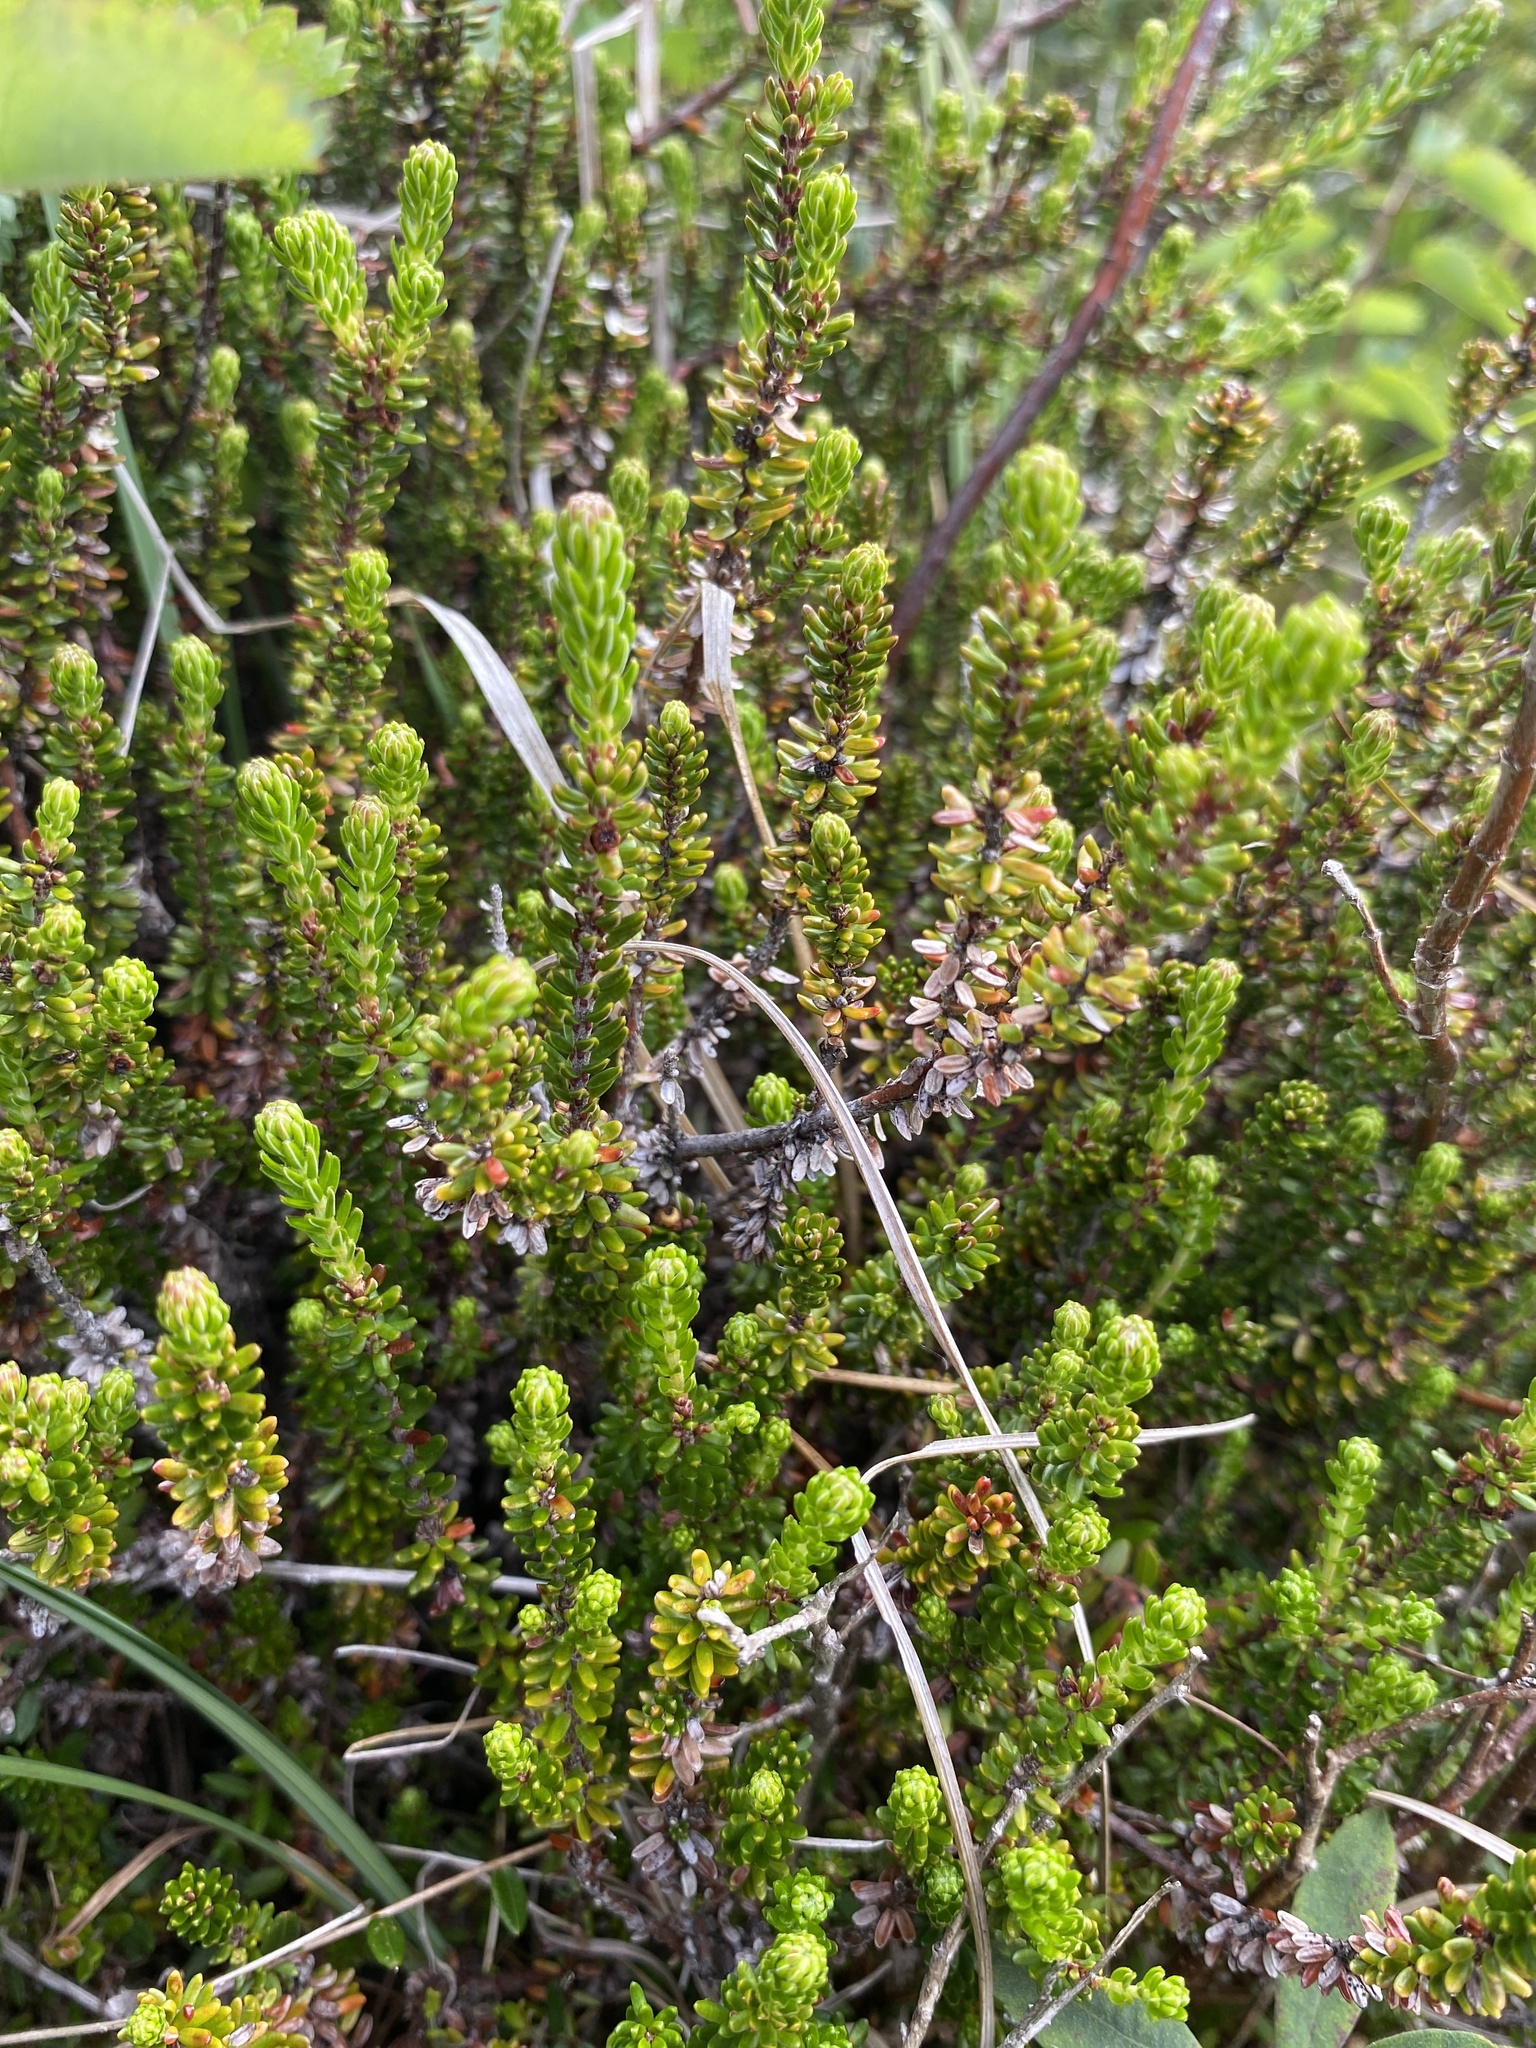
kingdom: Plantae
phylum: Tracheophyta
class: Magnoliopsida
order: Ericales
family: Ericaceae
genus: Empetrum
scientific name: Empetrum nigrum
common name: Black crowberry
